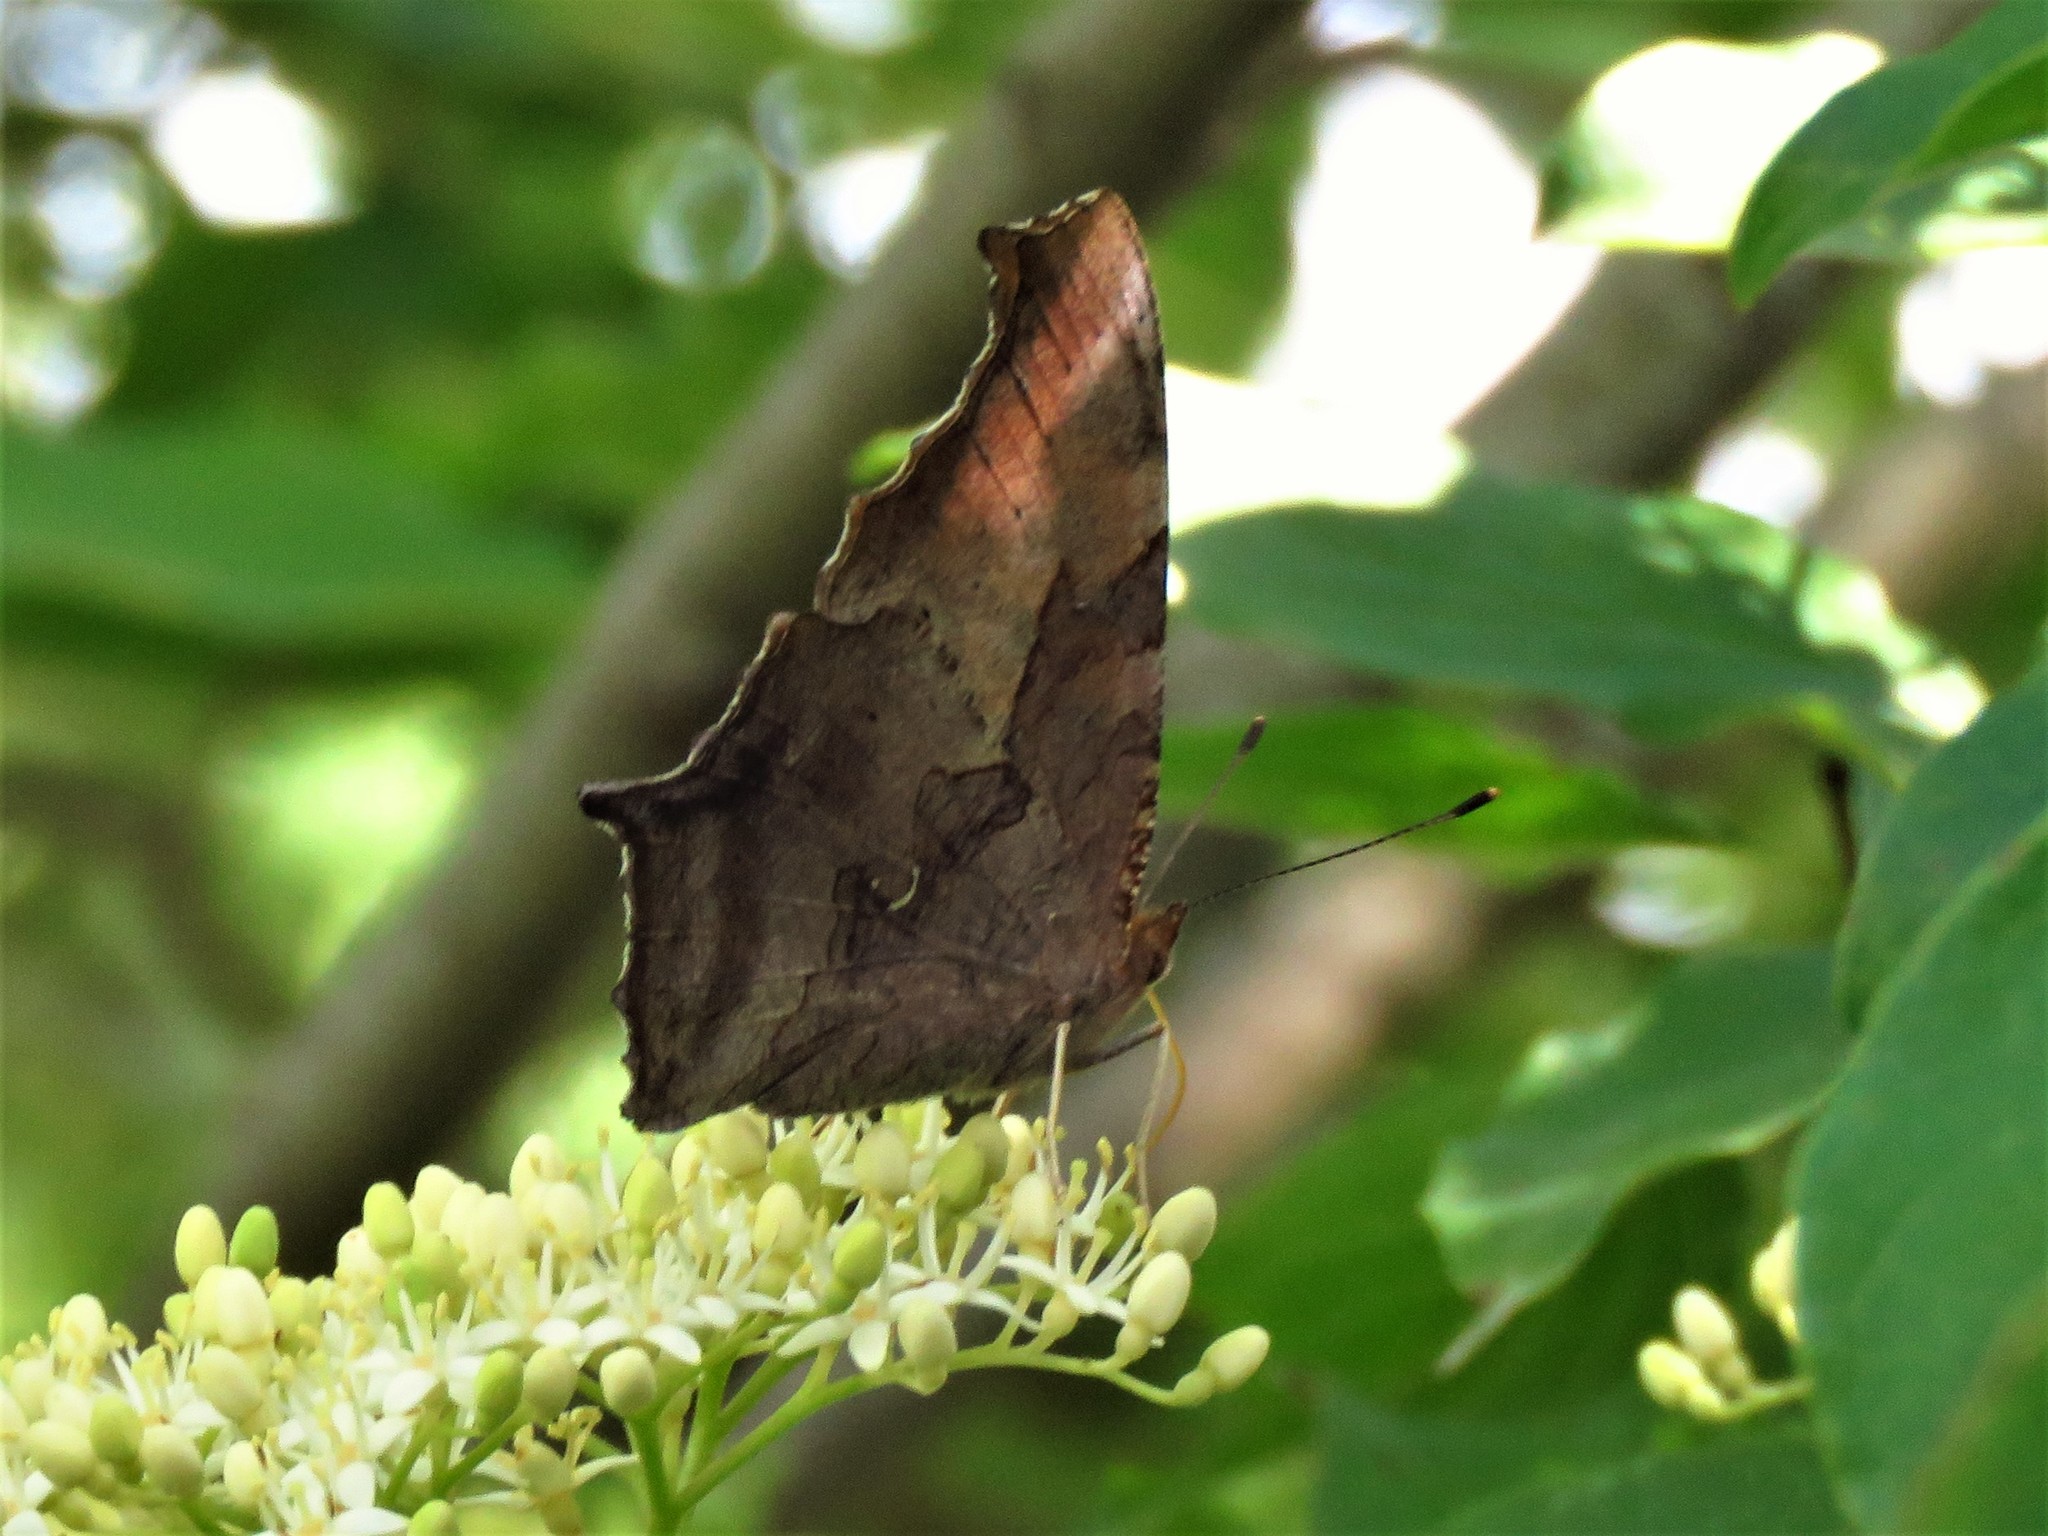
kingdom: Animalia
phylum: Arthropoda
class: Insecta
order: Lepidoptera
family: Nymphalidae
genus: Polygonia
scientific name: Polygonia interrogationis
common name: Question mark
